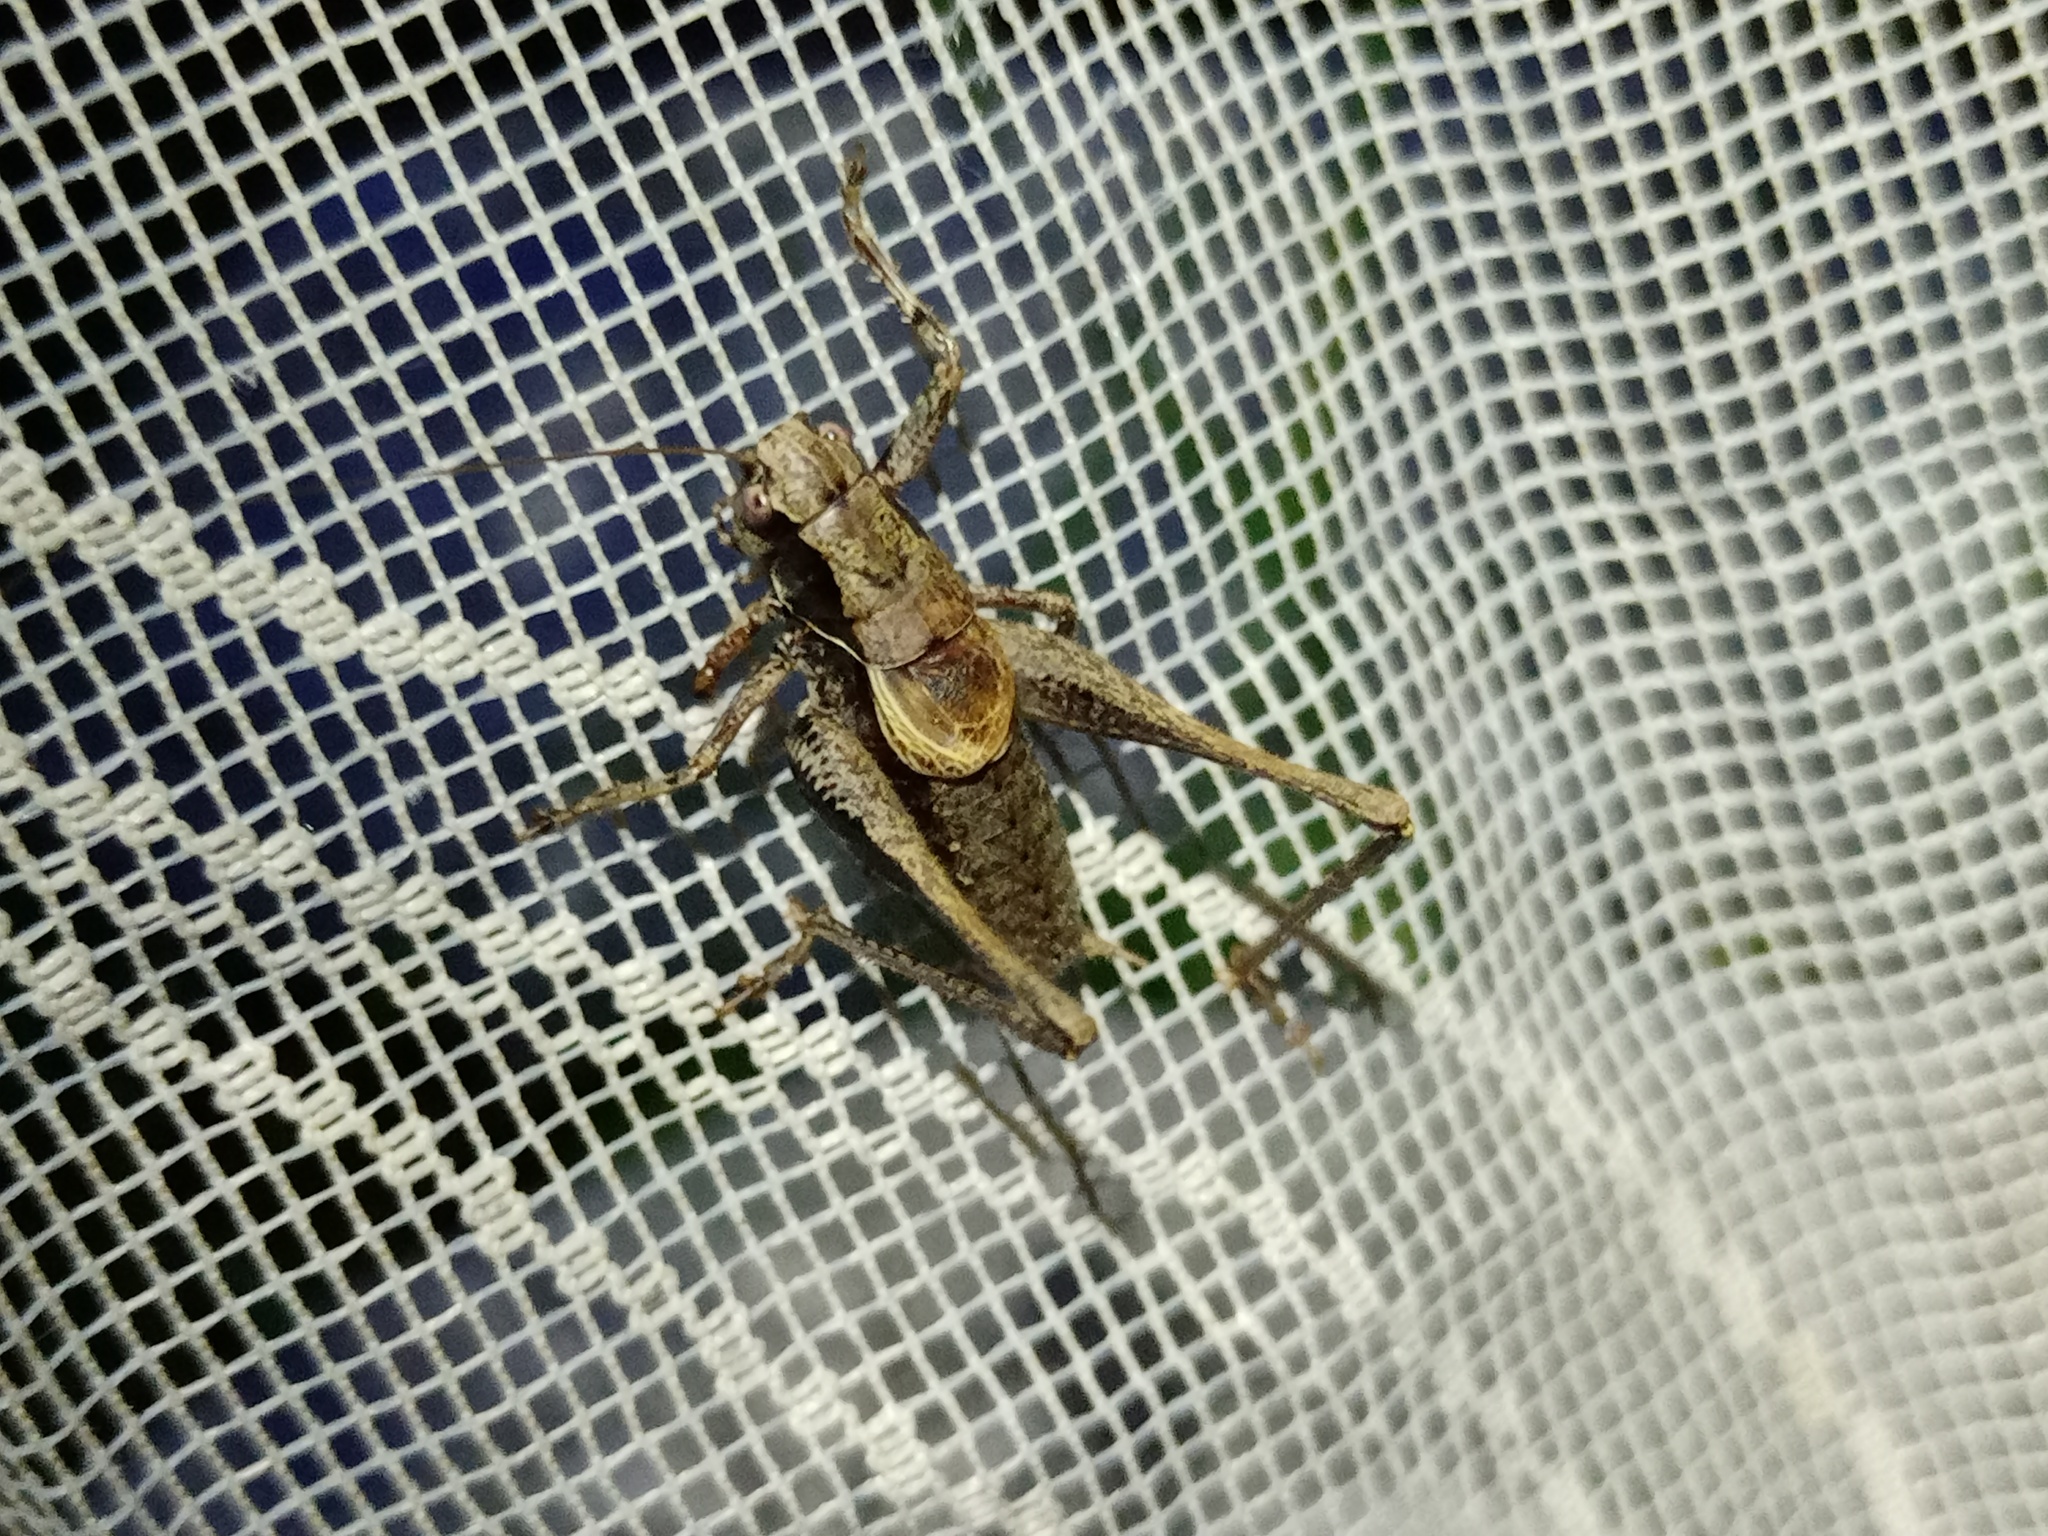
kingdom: Animalia
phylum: Arthropoda
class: Insecta
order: Orthoptera
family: Tettigoniidae
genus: Pholidoptera
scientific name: Pholidoptera griseoaptera
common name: Dark bush-cricket
